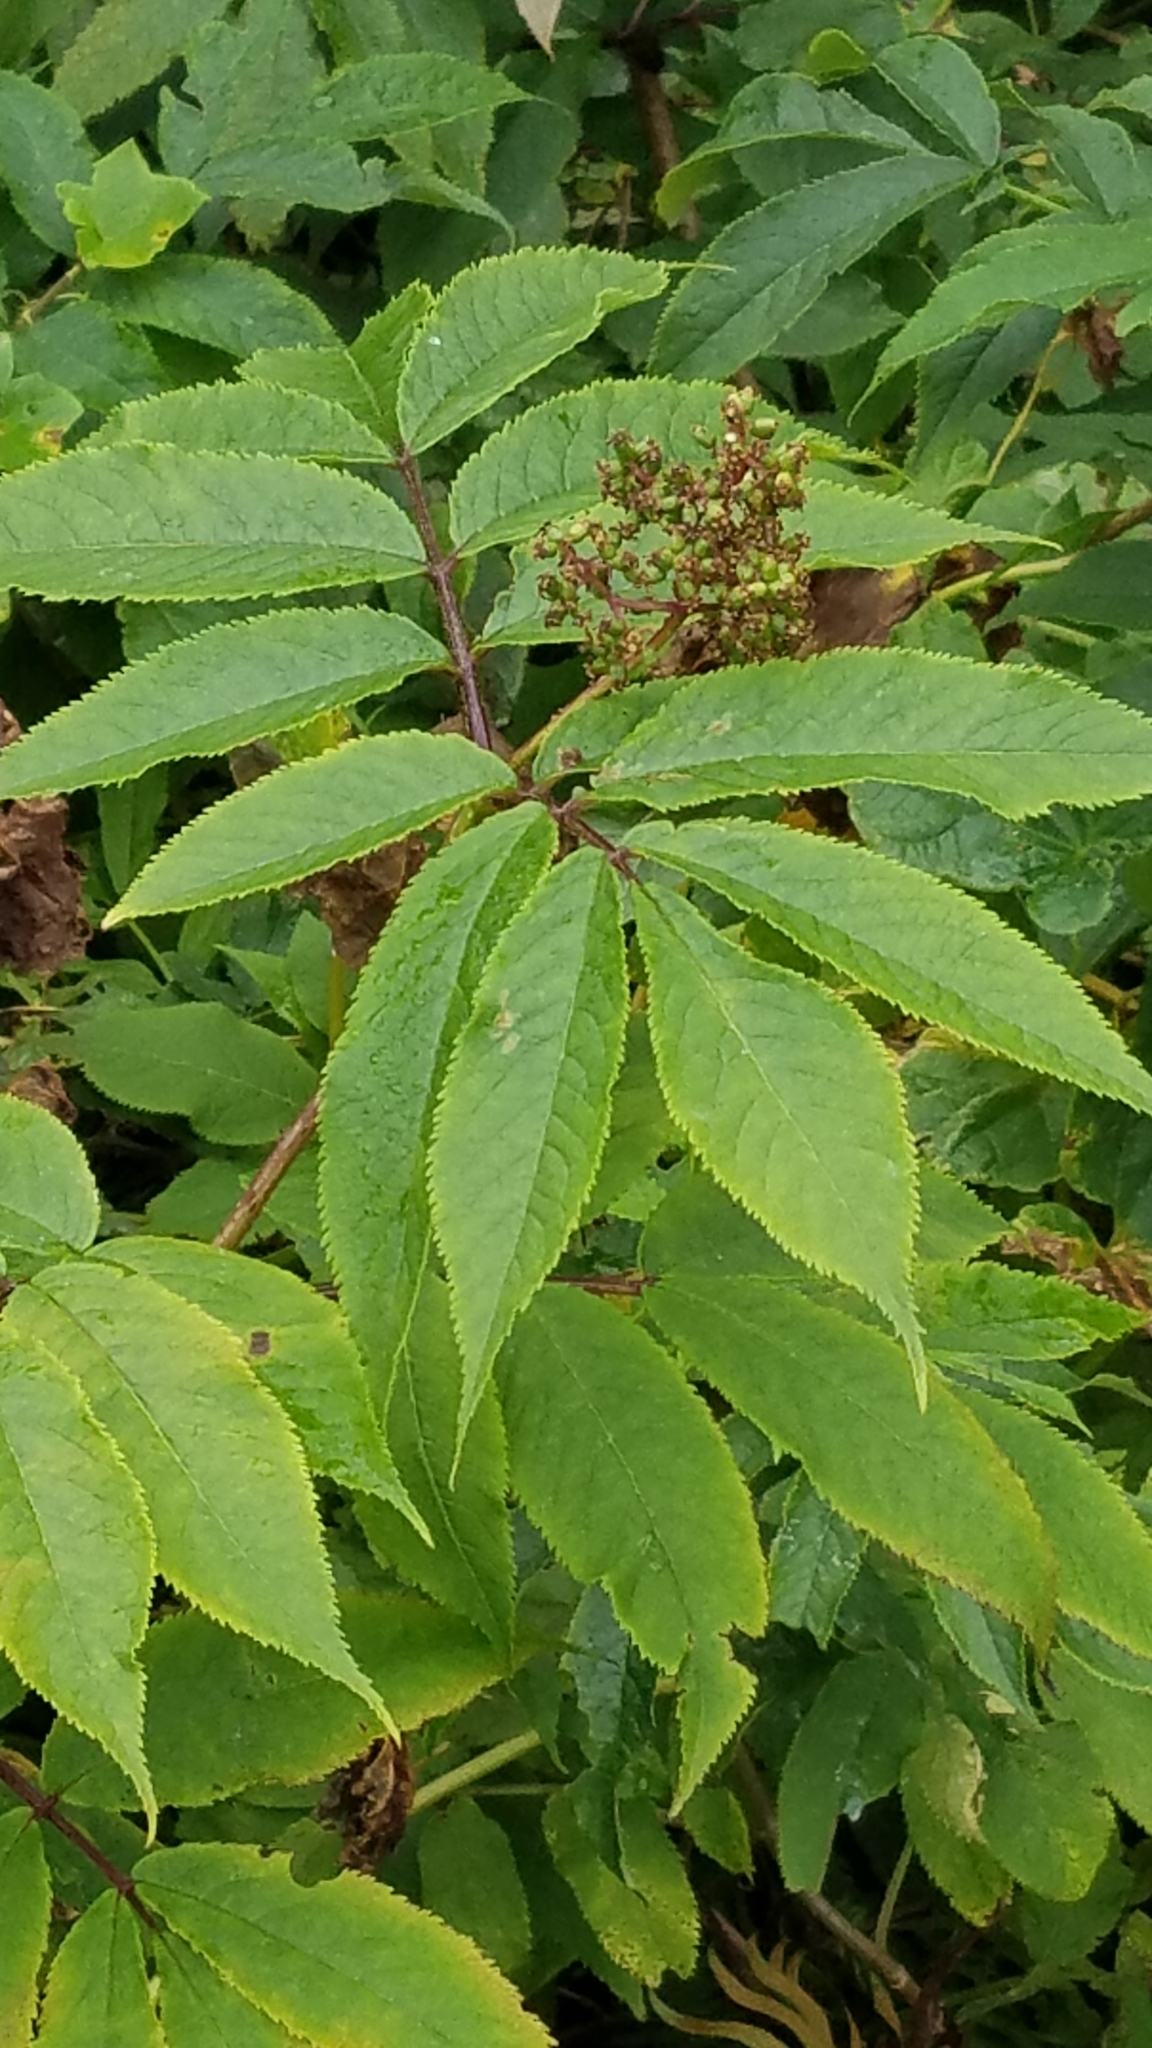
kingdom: Plantae
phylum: Tracheophyta
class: Magnoliopsida
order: Dipsacales
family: Viburnaceae
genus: Sambucus
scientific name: Sambucus racemosa
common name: Red-berried elder
